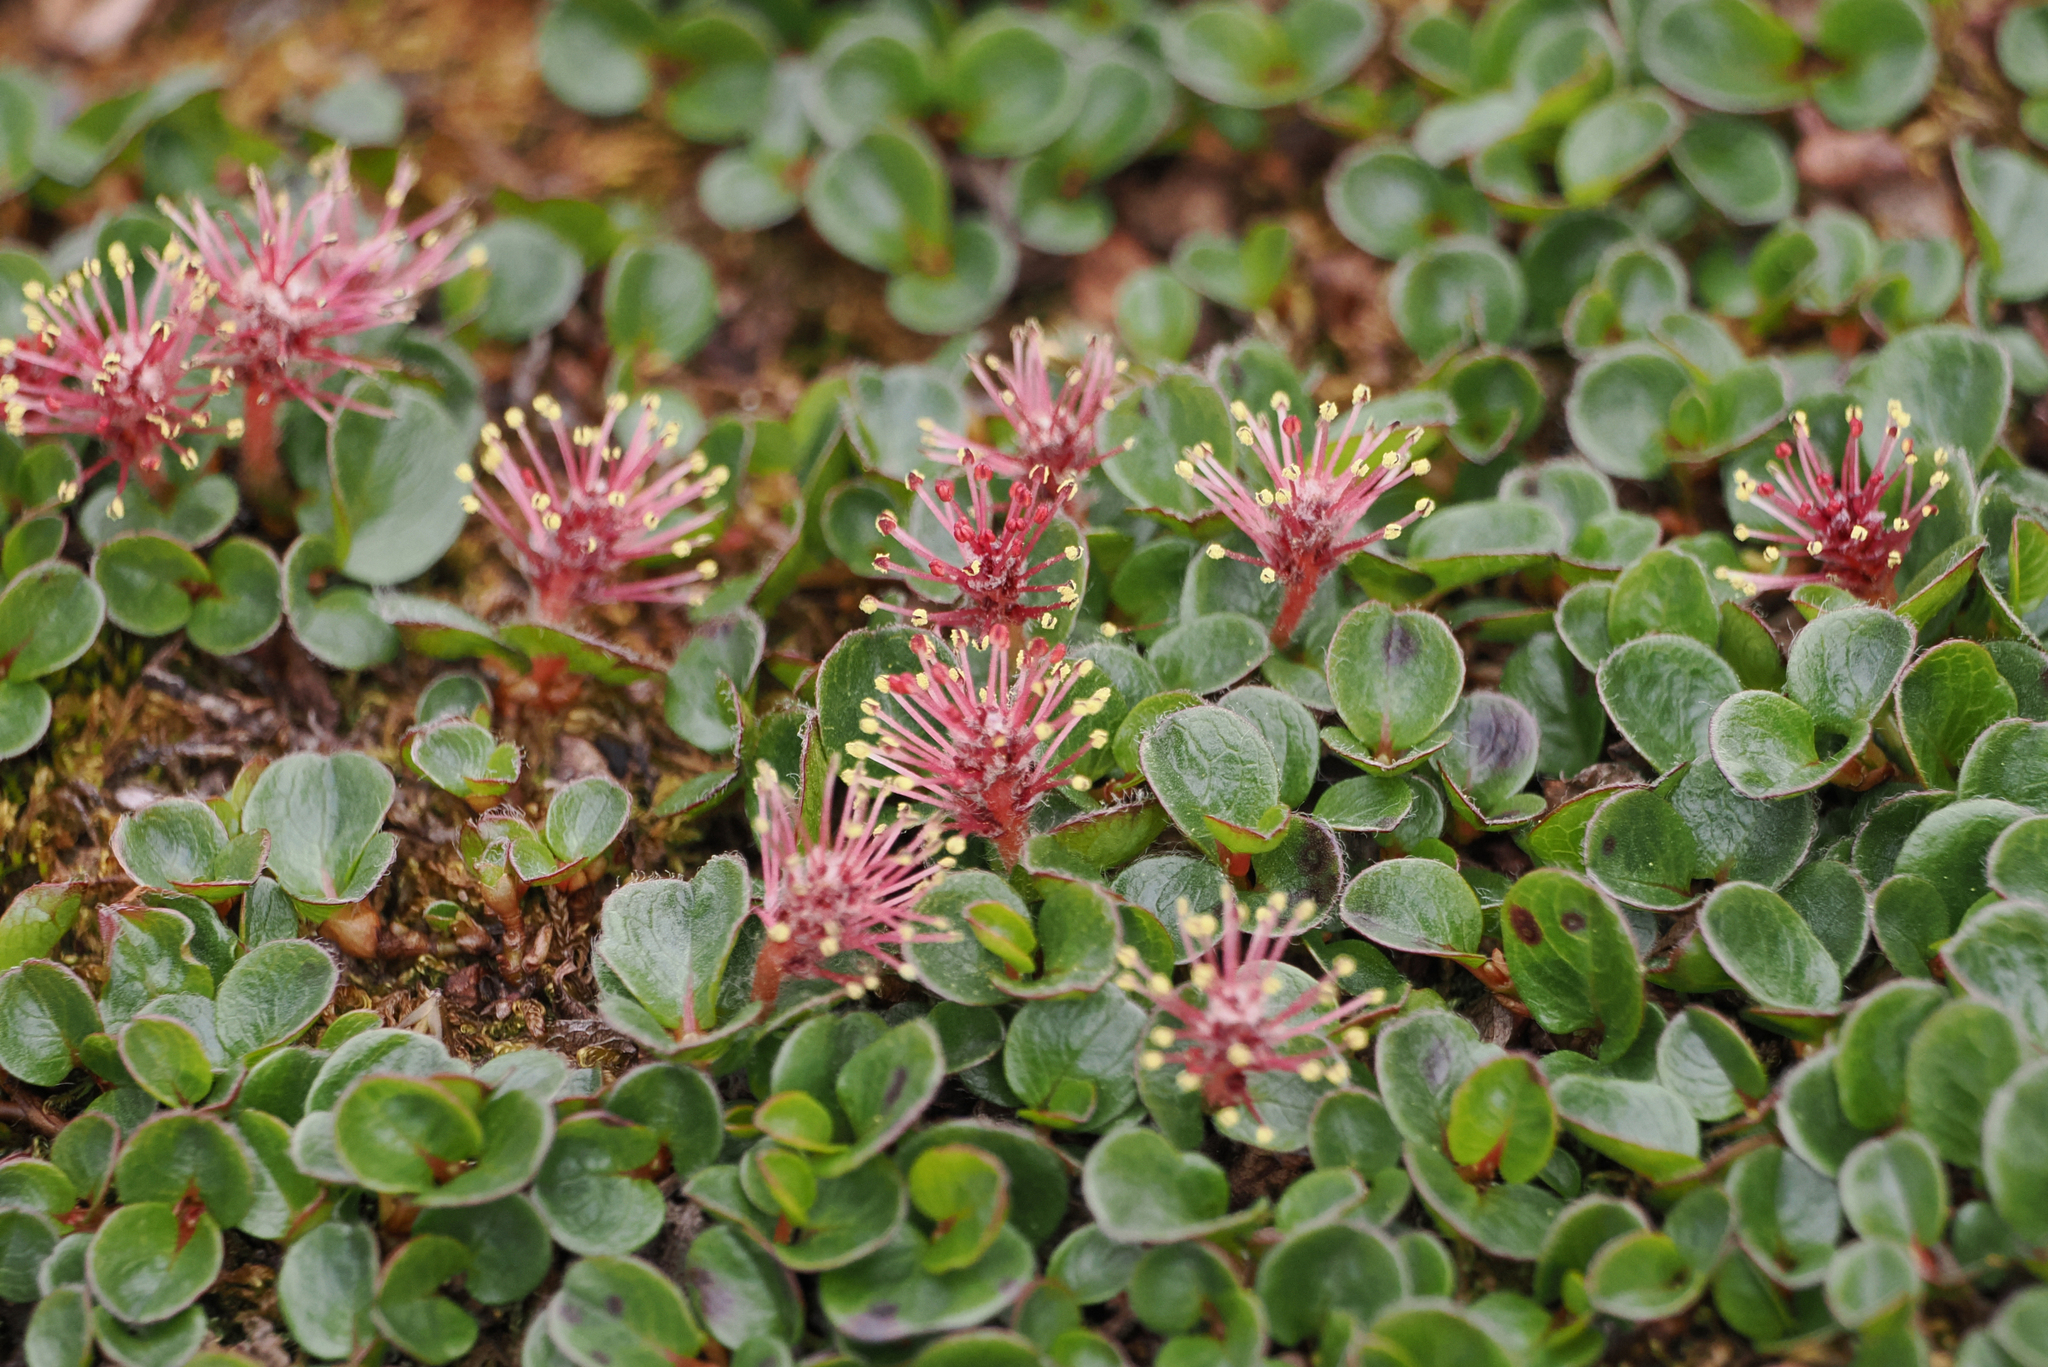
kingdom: Plantae
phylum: Tracheophyta
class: Magnoliopsida
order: Malpighiales
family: Salicaceae
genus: Salix
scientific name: Salix polaris
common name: Polar willow
